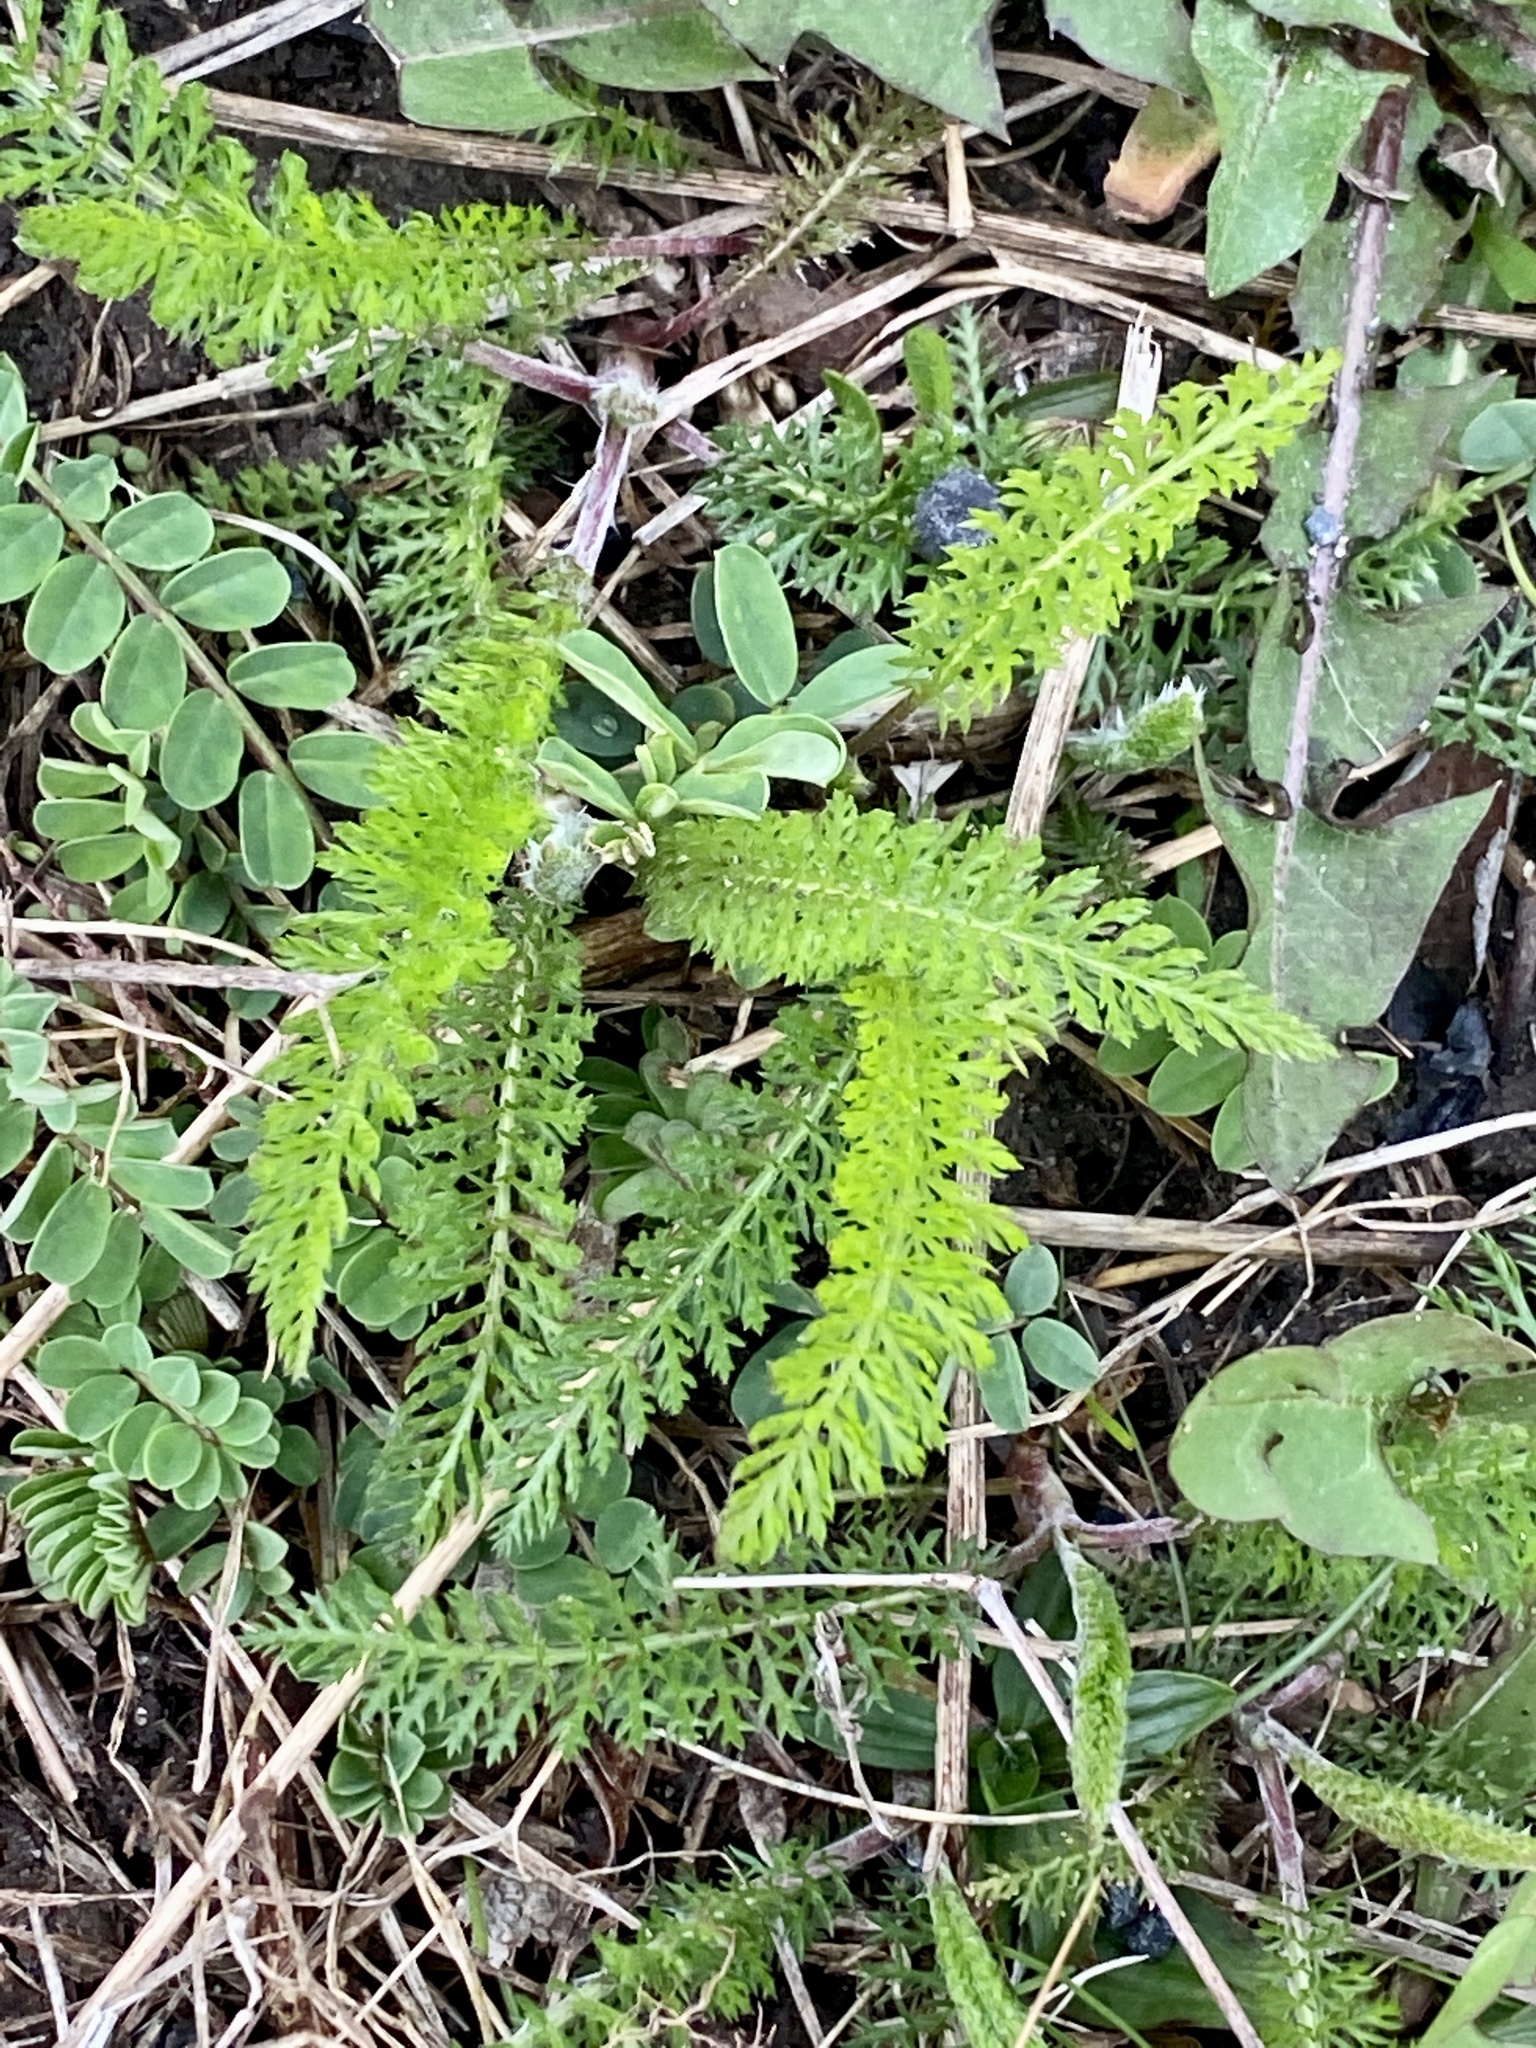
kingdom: Plantae
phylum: Tracheophyta
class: Magnoliopsida
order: Asterales
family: Asteraceae
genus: Achillea
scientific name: Achillea millefolium
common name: Yarrow
